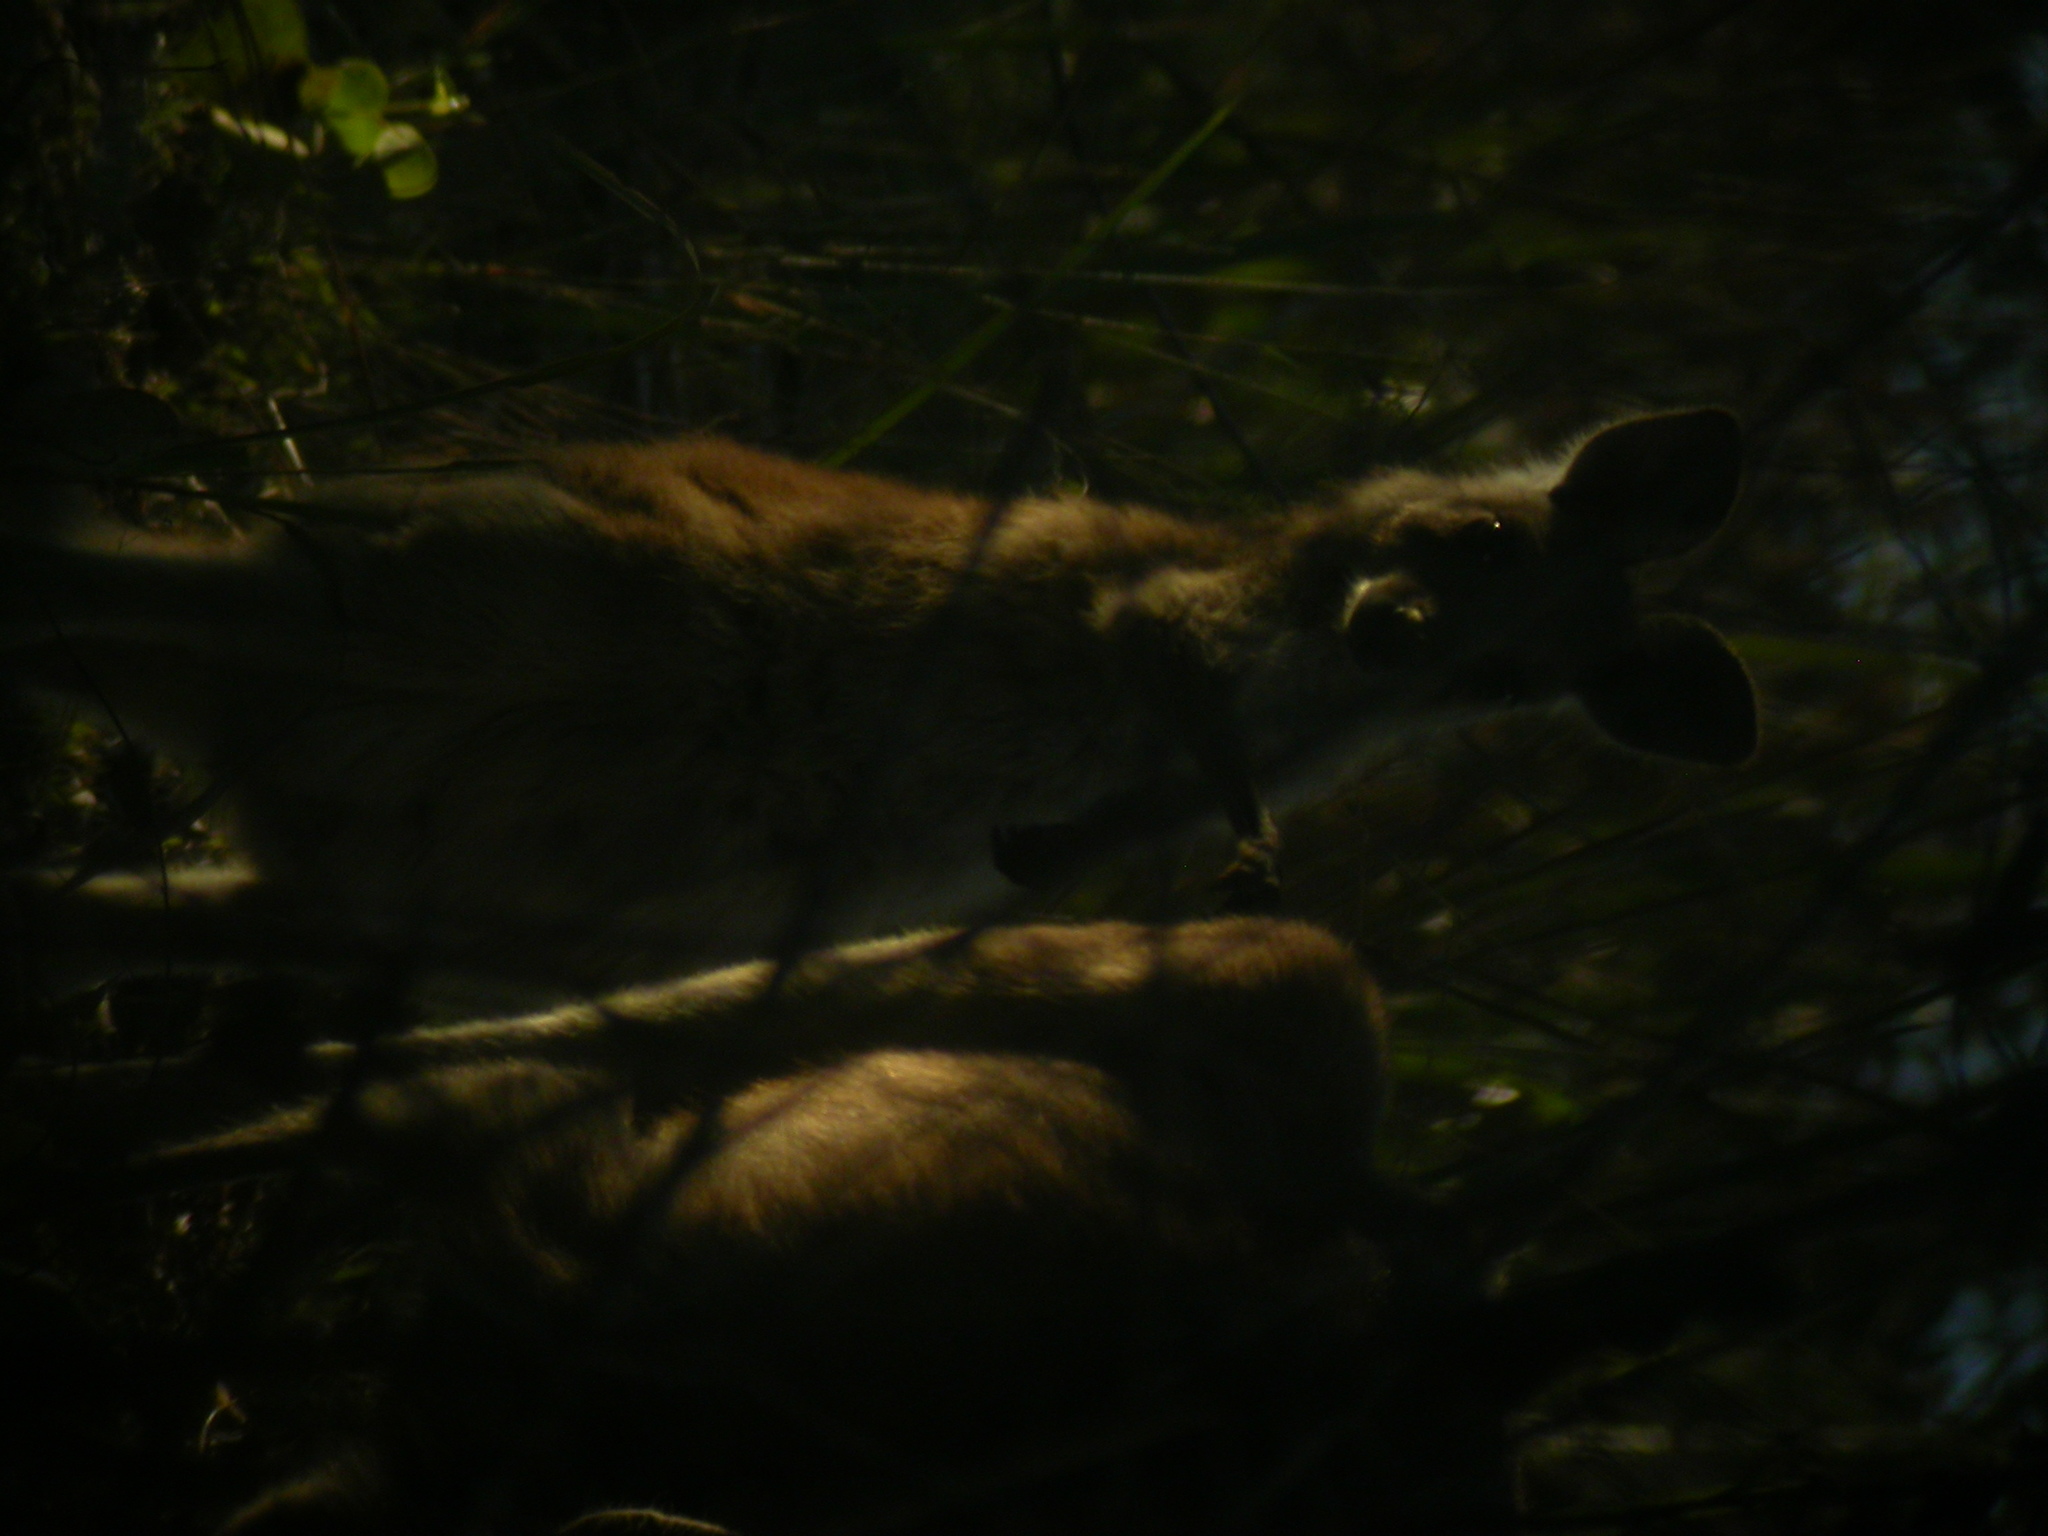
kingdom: Animalia
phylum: Chordata
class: Mammalia
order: Diprotodontia
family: Macropodidae
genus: Macropus
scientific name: Macropus giganteus
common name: Eastern grey kangaroo
